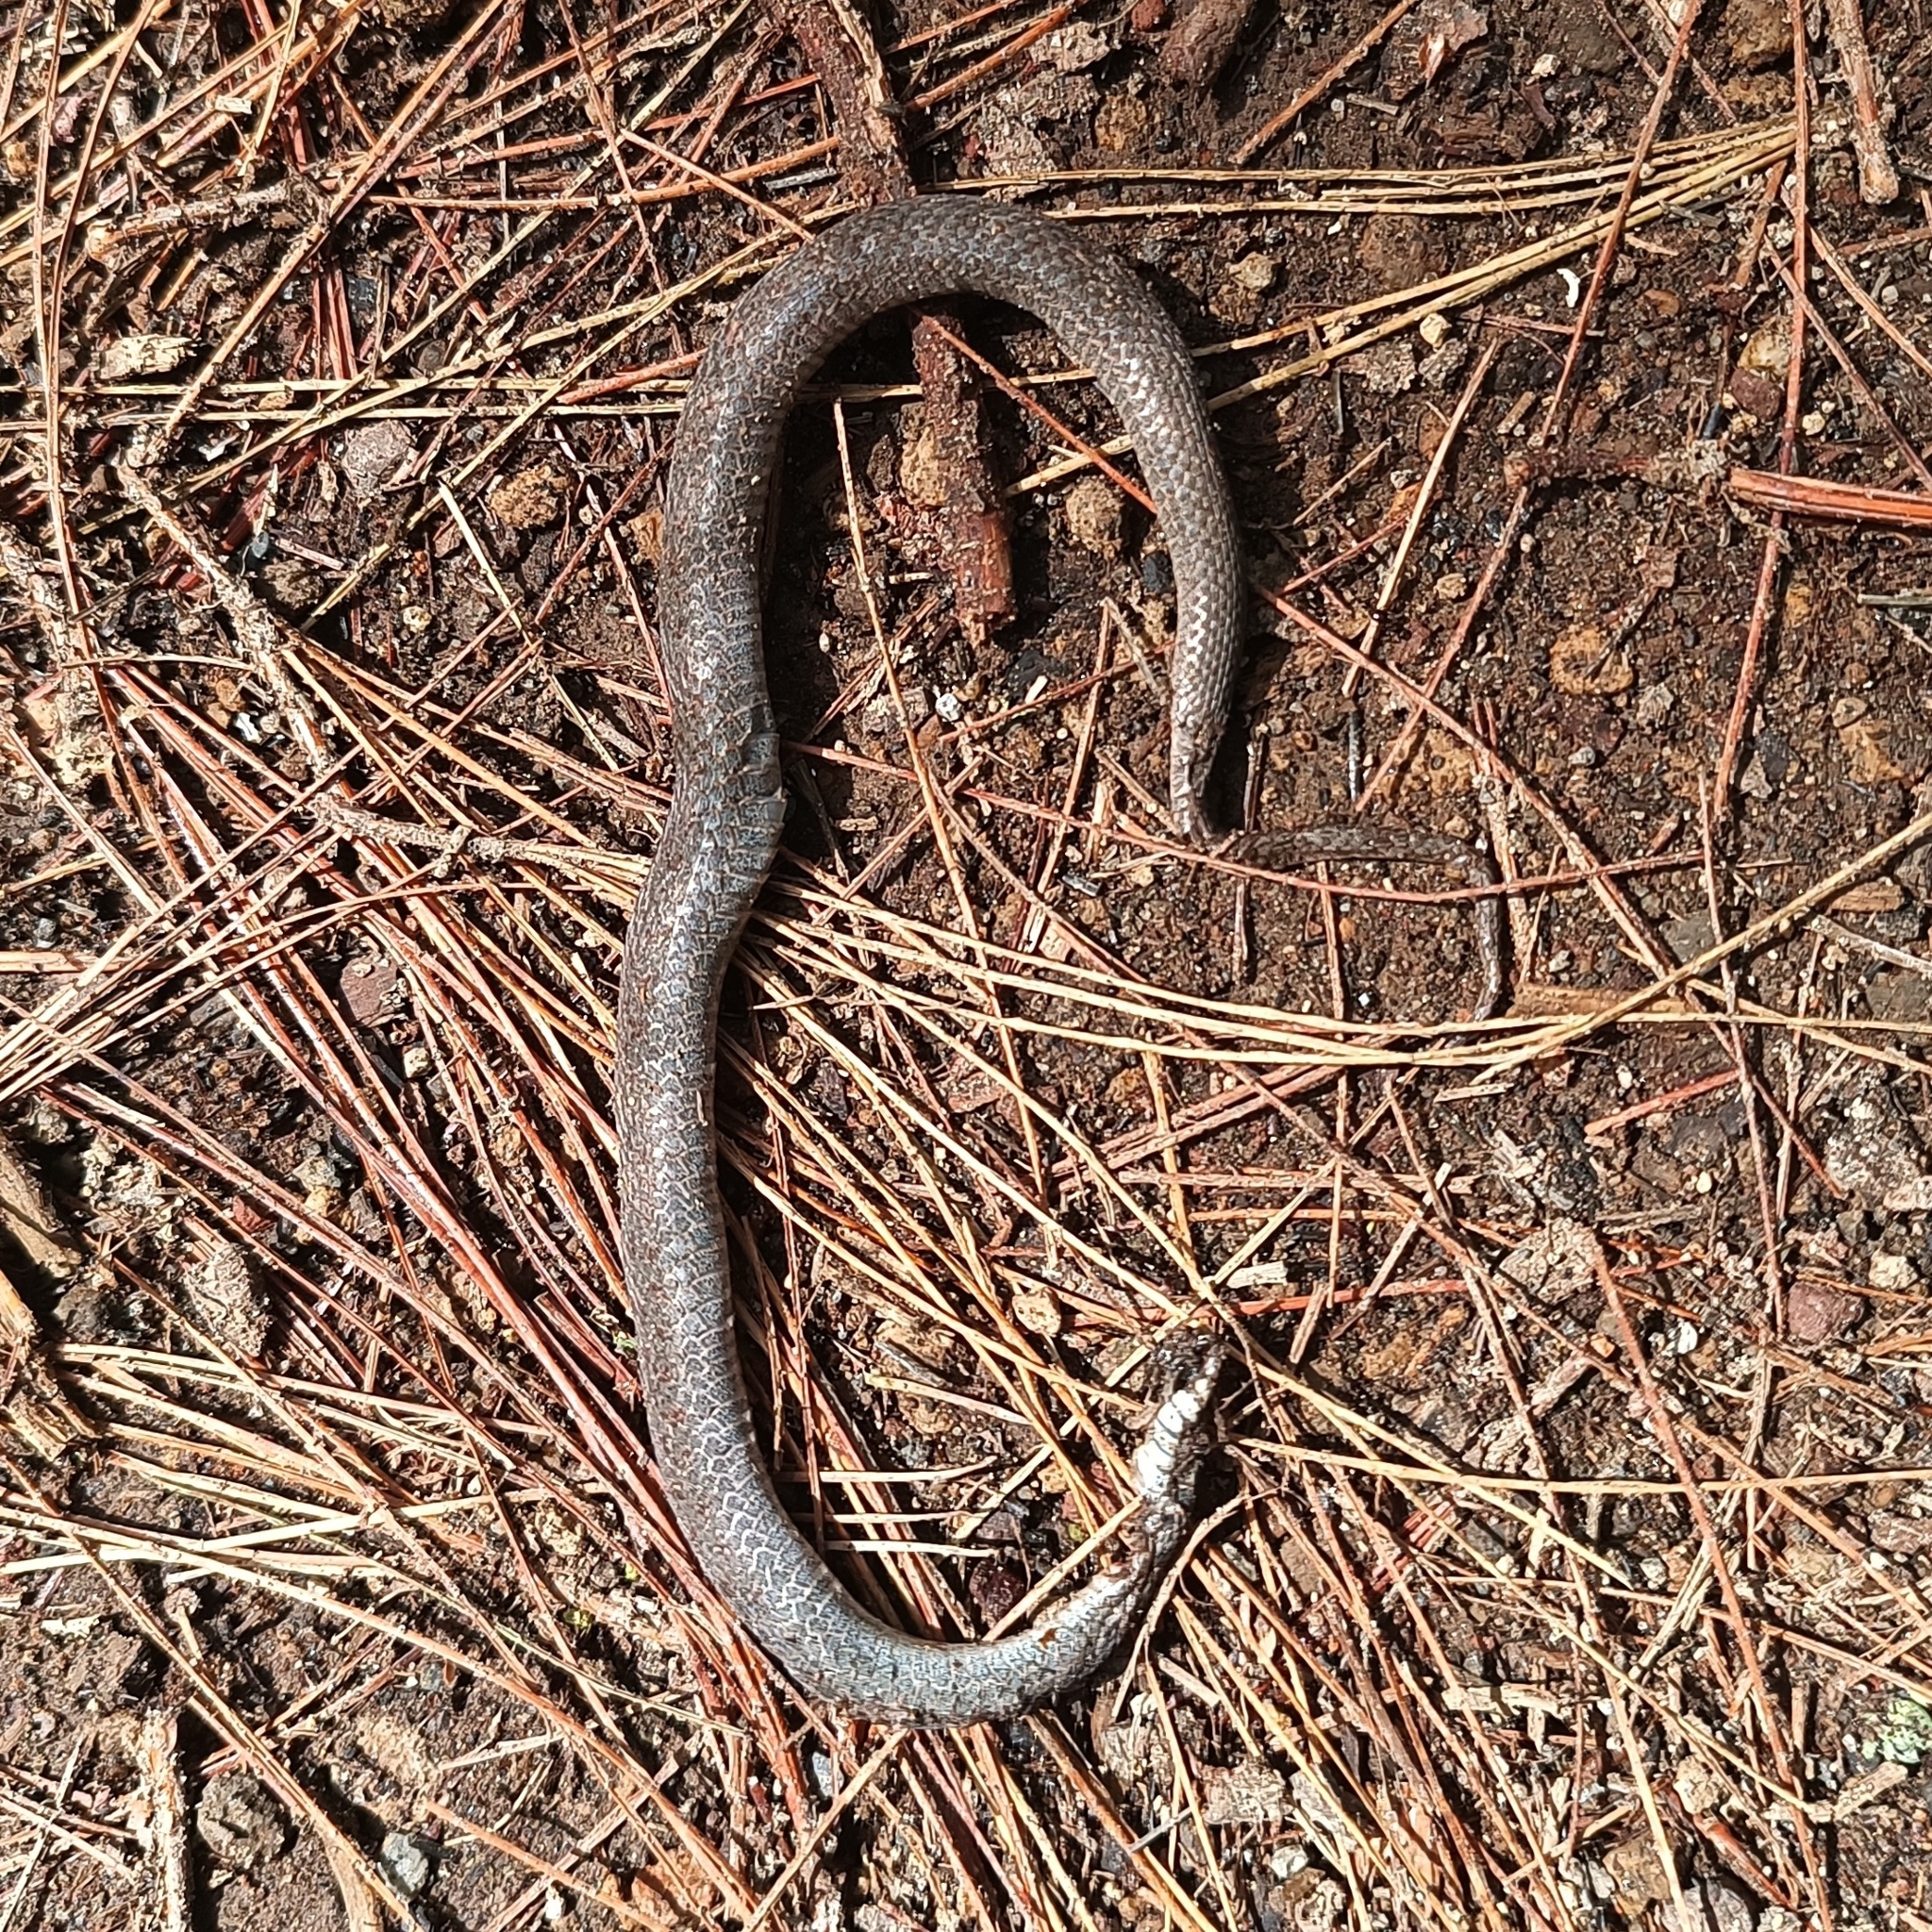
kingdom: Animalia
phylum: Chordata
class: Squamata
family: Colubridae
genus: Conopsis
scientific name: Conopsis biserialis
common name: Two-lined mexican earth snake
